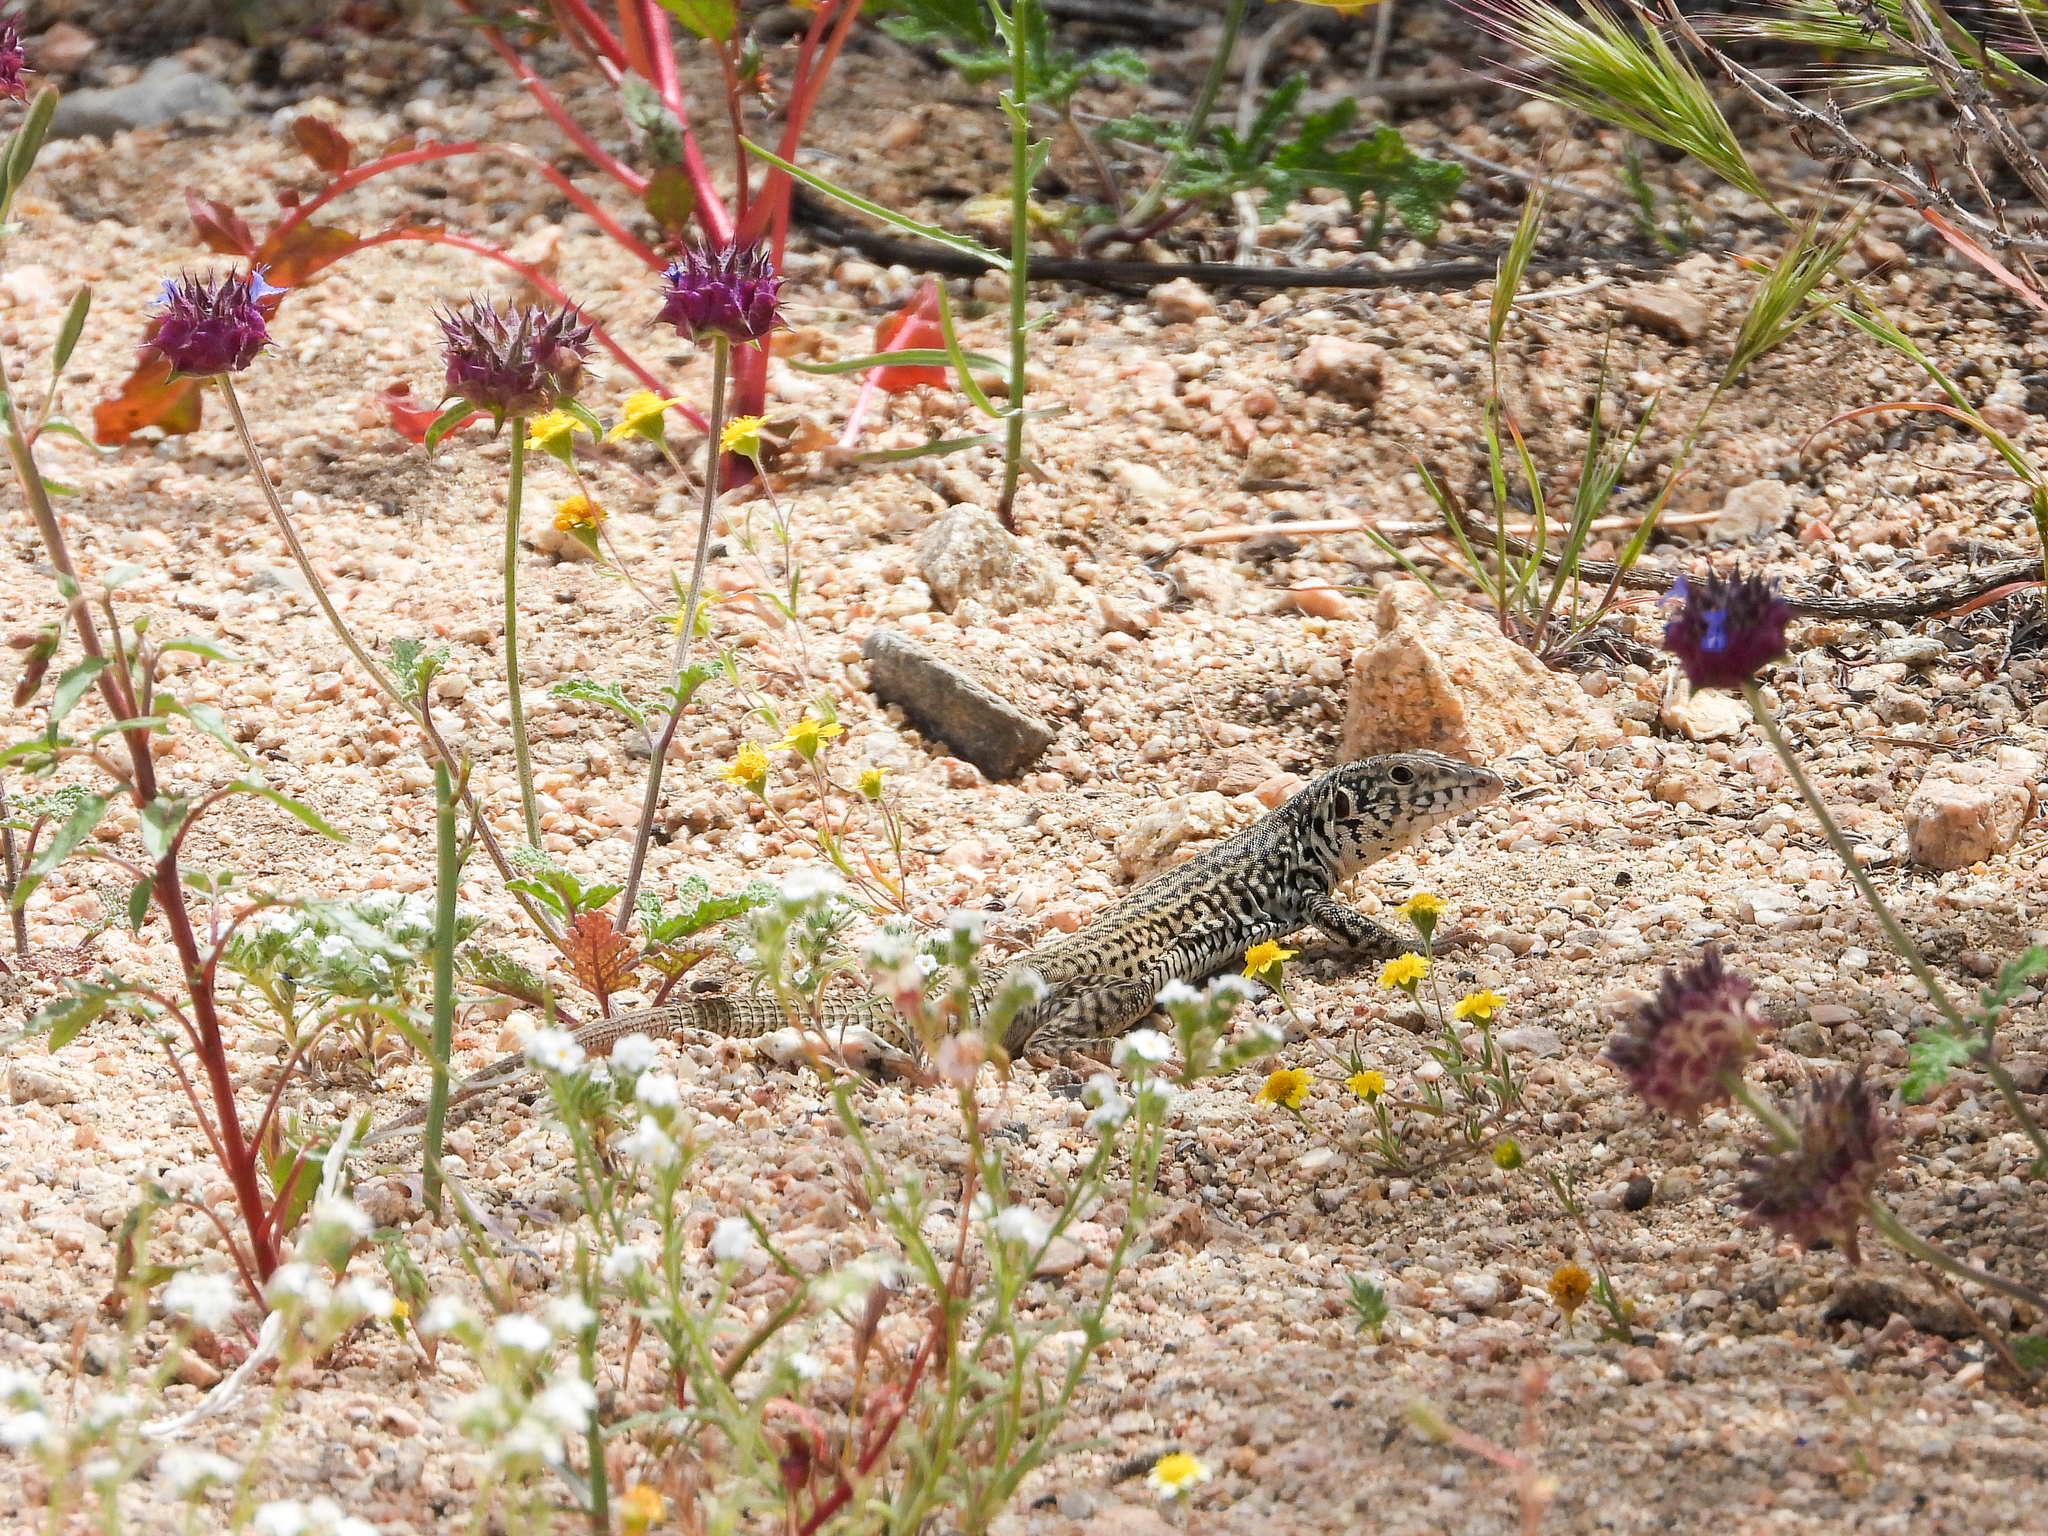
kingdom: Animalia
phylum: Chordata
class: Squamata
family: Teiidae
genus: Aspidoscelis
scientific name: Aspidoscelis tigris
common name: Tiger whiptail
